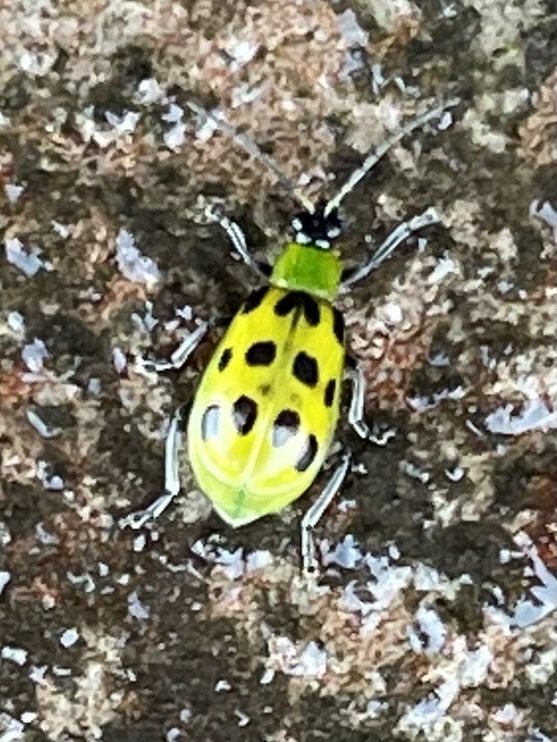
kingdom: Animalia
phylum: Arthropoda
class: Insecta
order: Coleoptera
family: Chrysomelidae
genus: Diabrotica
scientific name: Diabrotica undecimpunctata
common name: Spotted cucumber beetle
